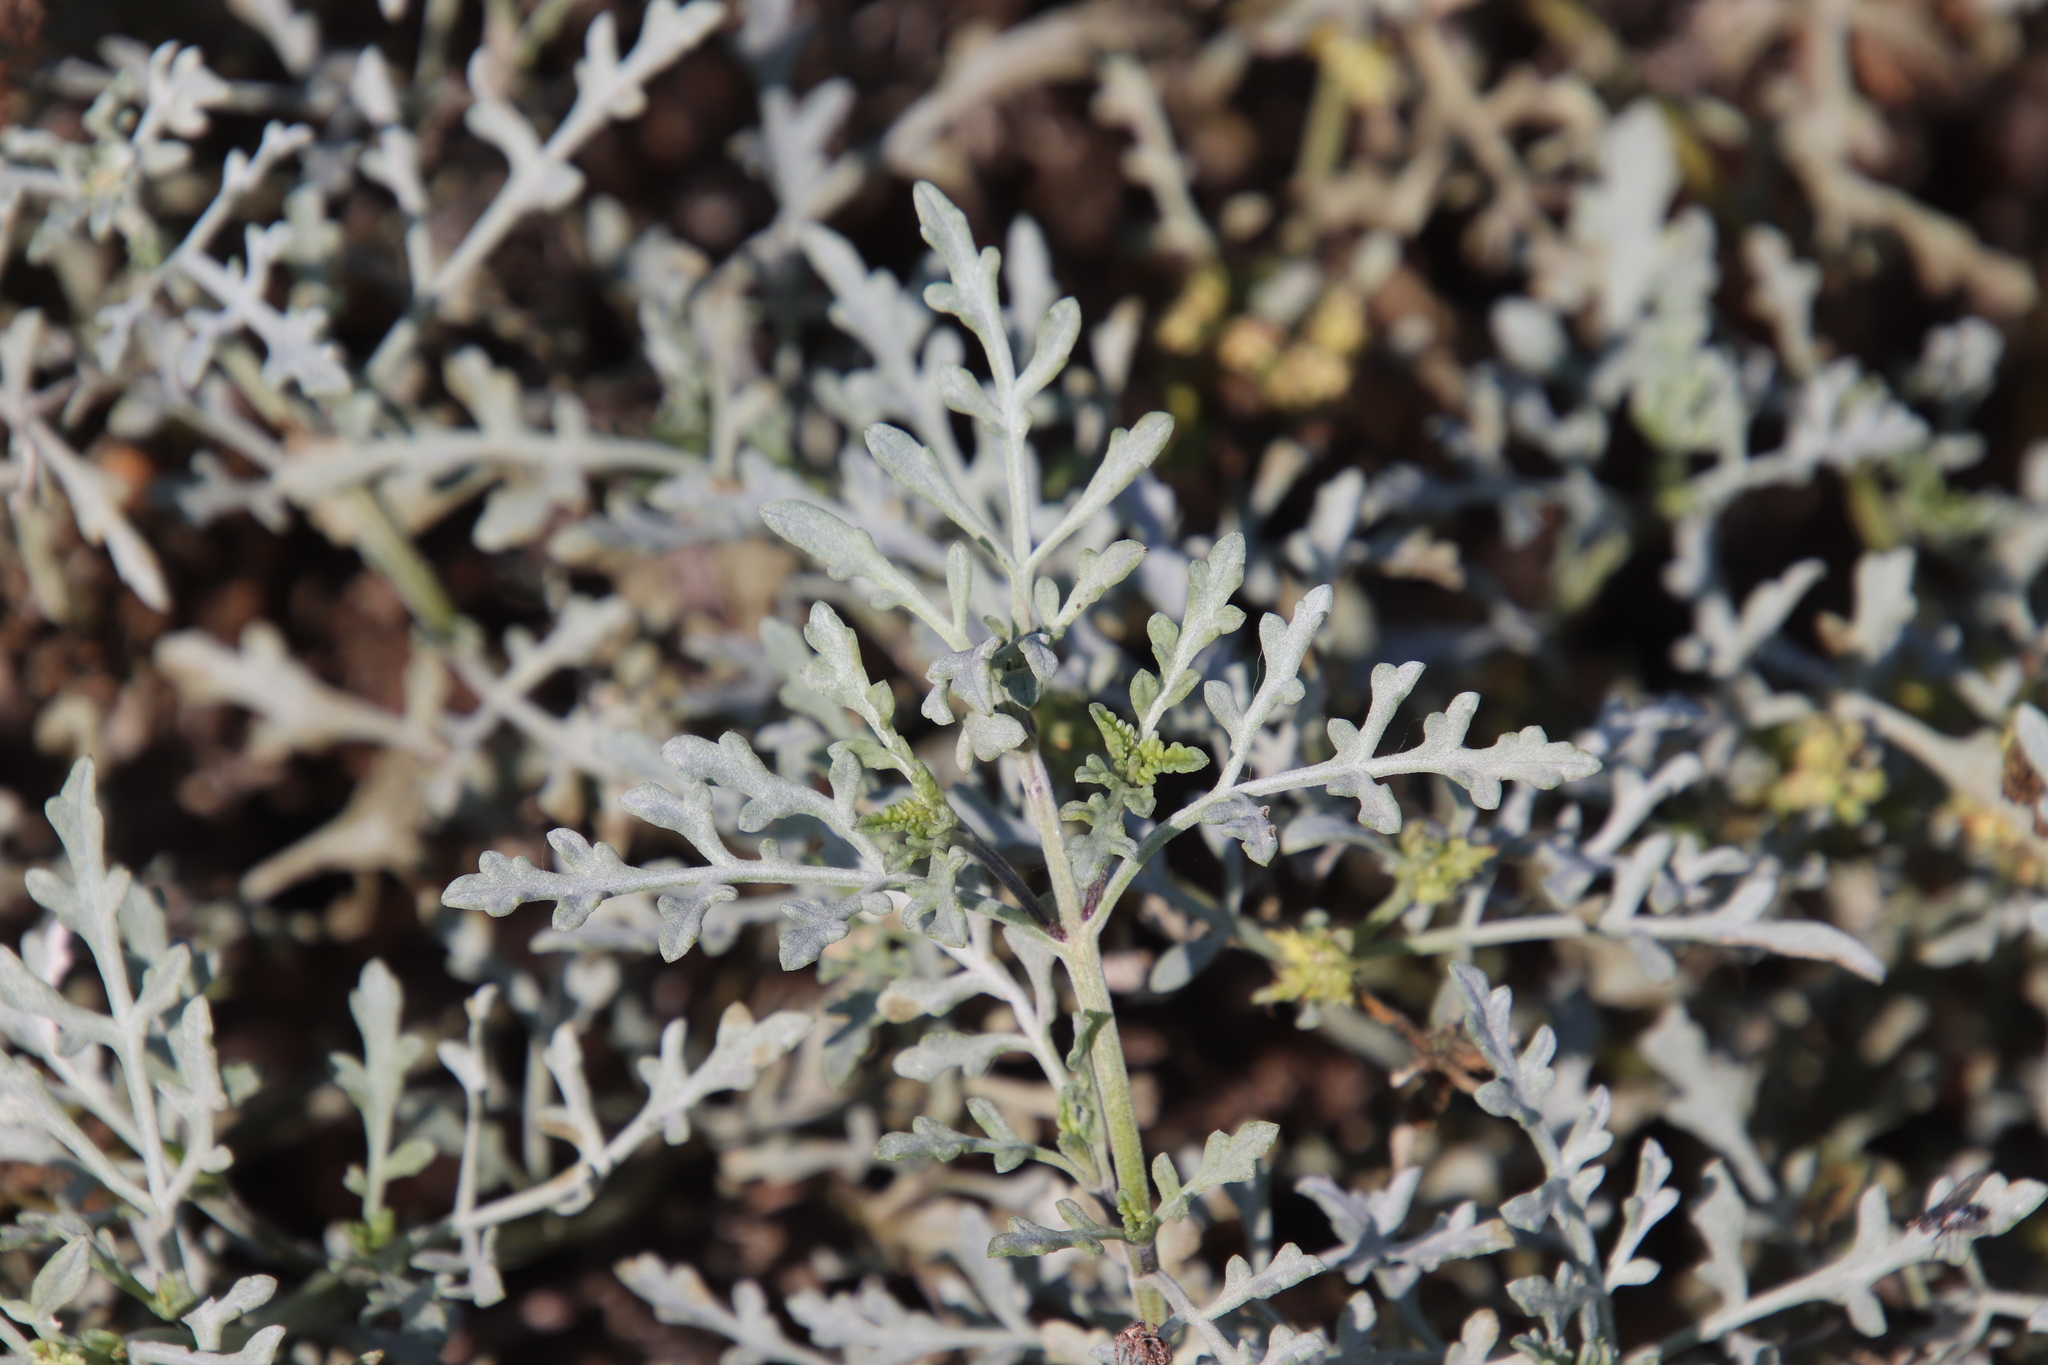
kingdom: Plantae
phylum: Tracheophyta
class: Magnoliopsida
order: Asterales
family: Asteraceae
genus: Ambrosia
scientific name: Ambrosia chamissonis
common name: Beachbur
